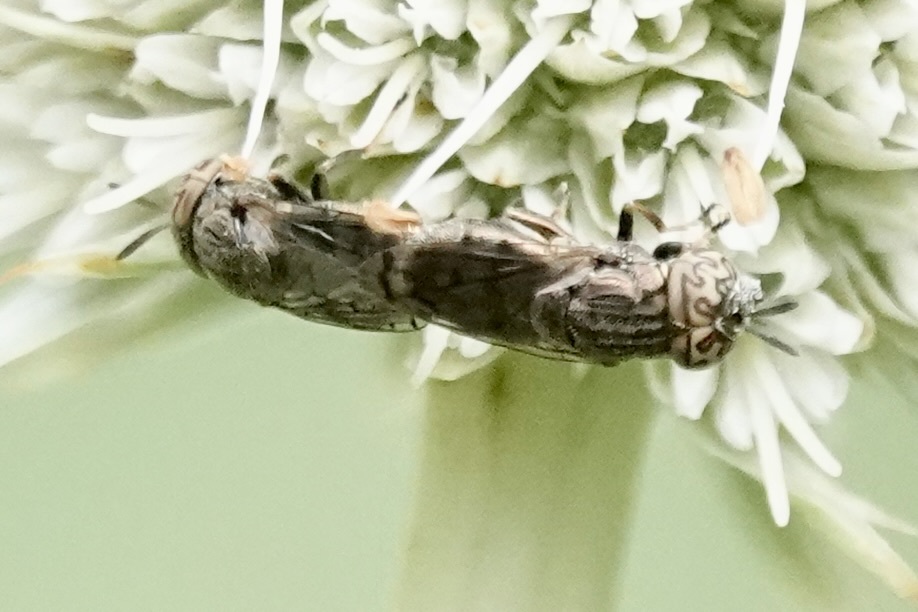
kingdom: Animalia
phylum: Arthropoda
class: Insecta
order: Diptera
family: Syrphidae
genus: Orthonevra
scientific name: Orthonevra nitida
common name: Wavy mucksucker
